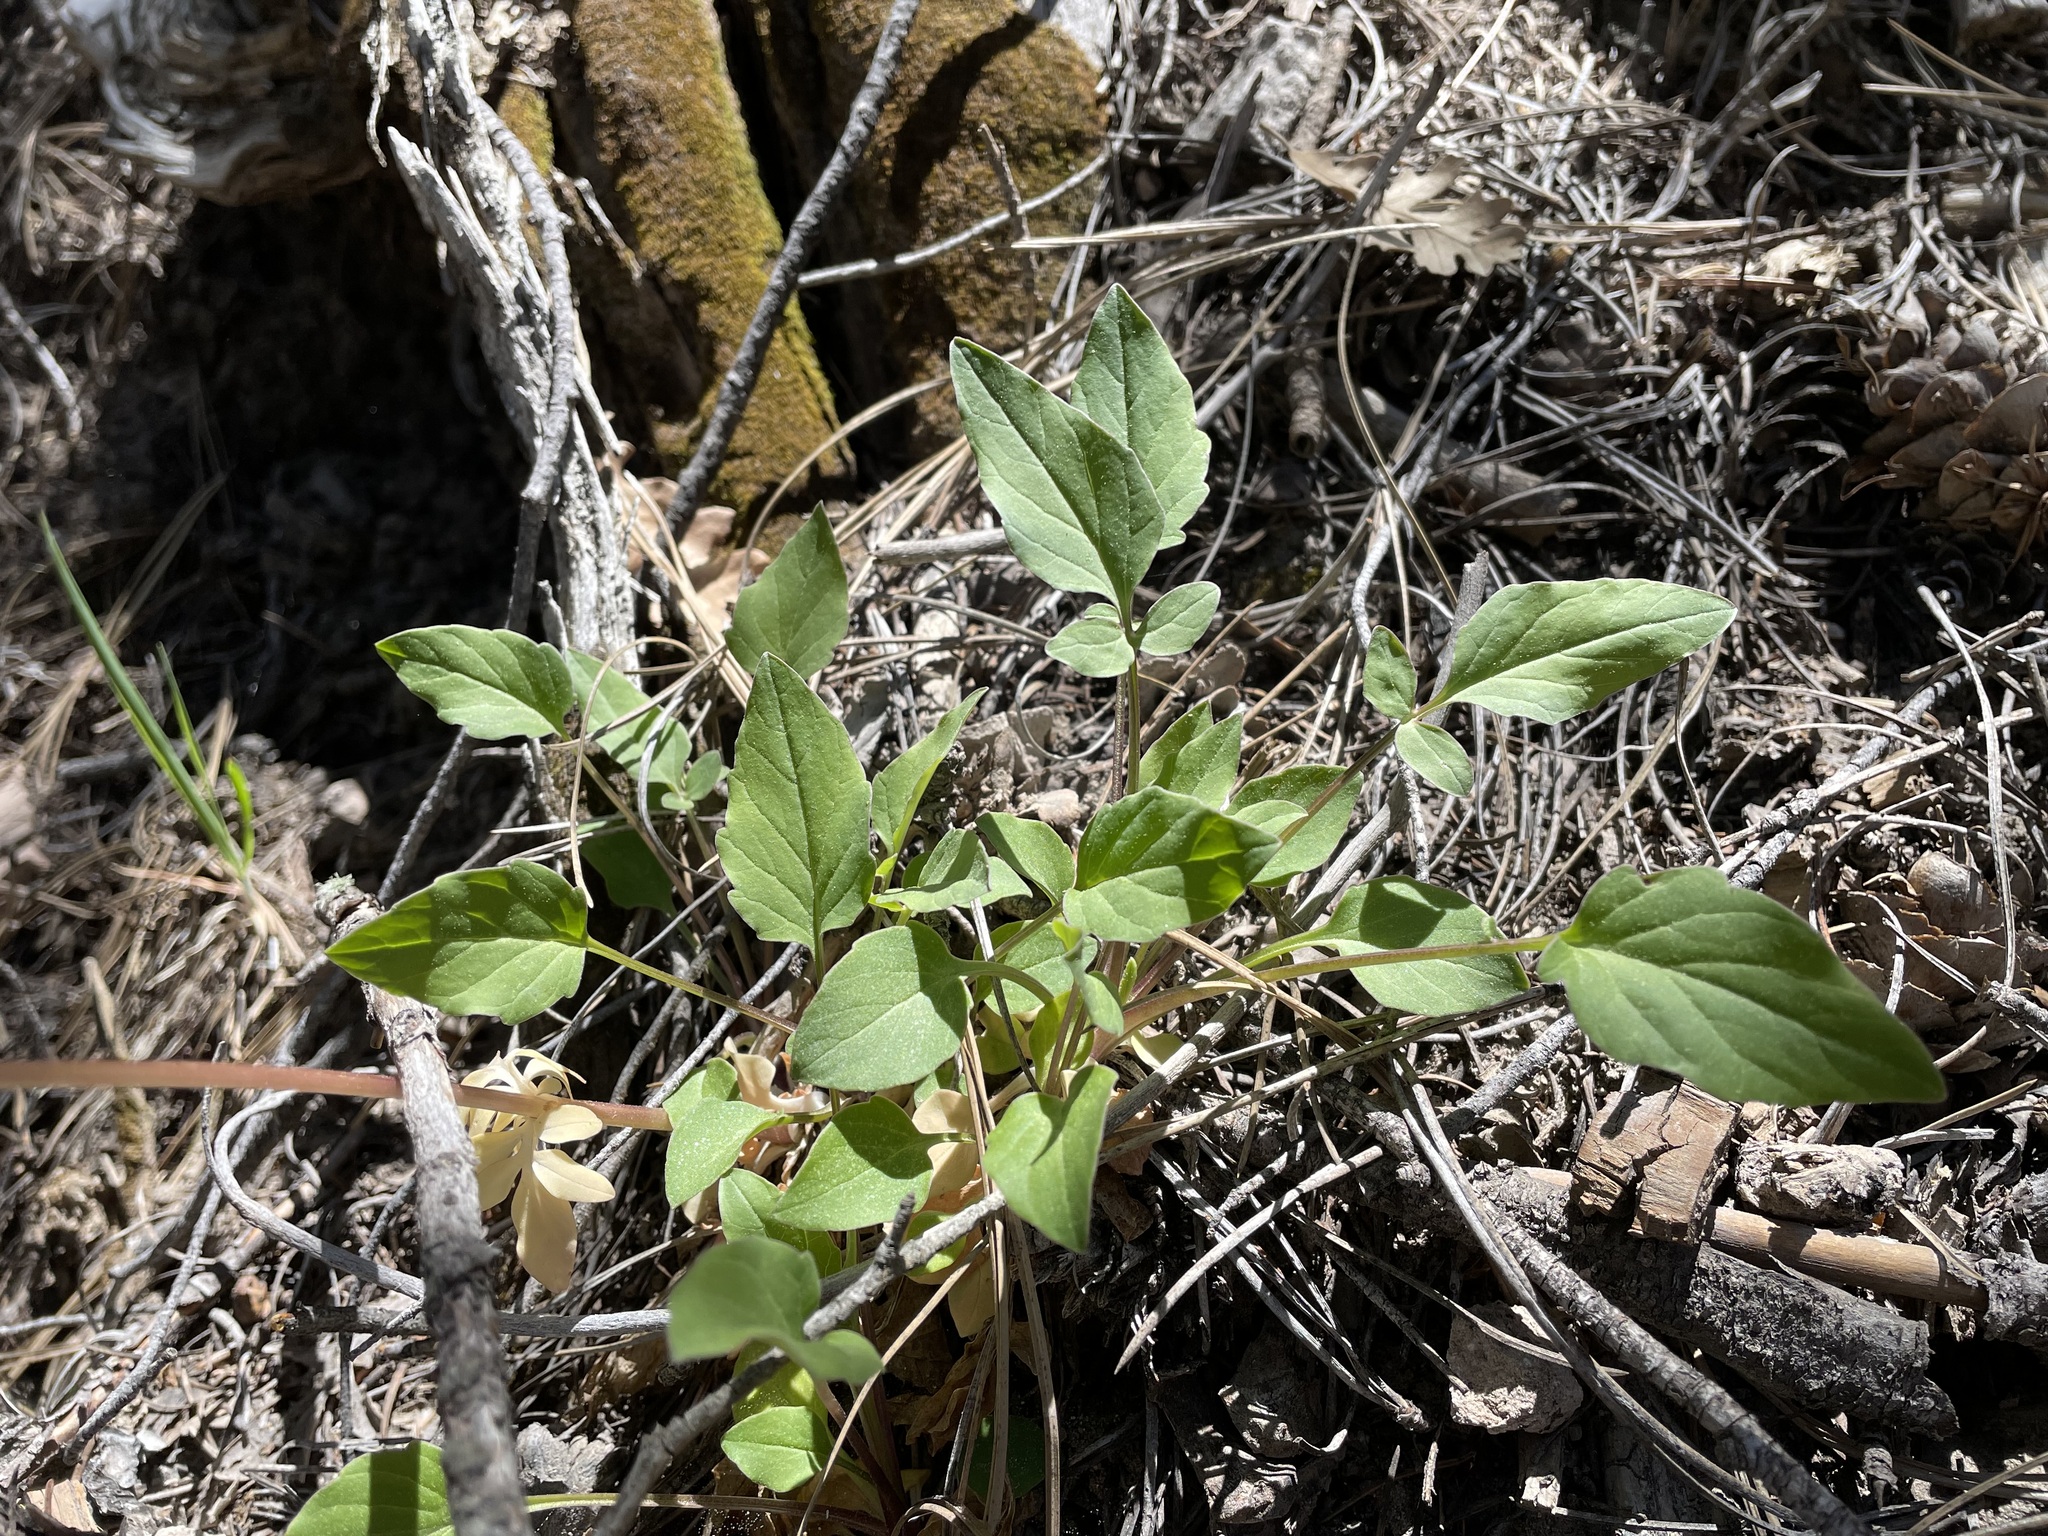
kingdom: Plantae
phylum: Tracheophyta
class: Magnoliopsida
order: Dipsacales
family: Caprifoliaceae
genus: Valeriana
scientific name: Valeriana arizonica
